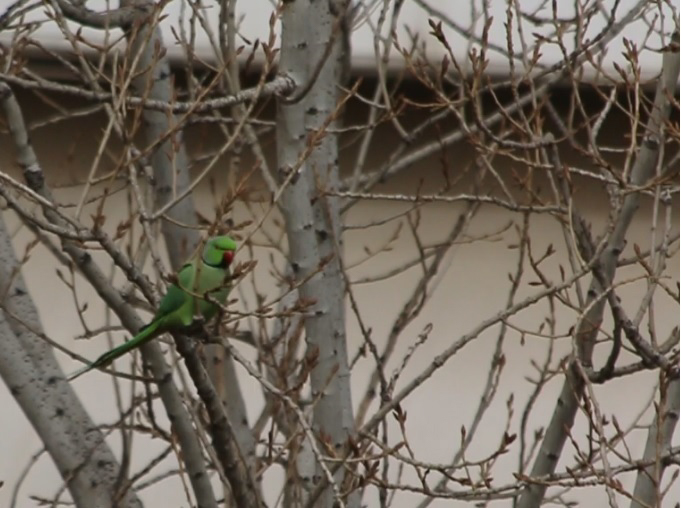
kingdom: Animalia
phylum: Chordata
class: Aves
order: Psittaciformes
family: Psittacidae
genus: Psittacula
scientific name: Psittacula krameri
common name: Rose-ringed parakeet
